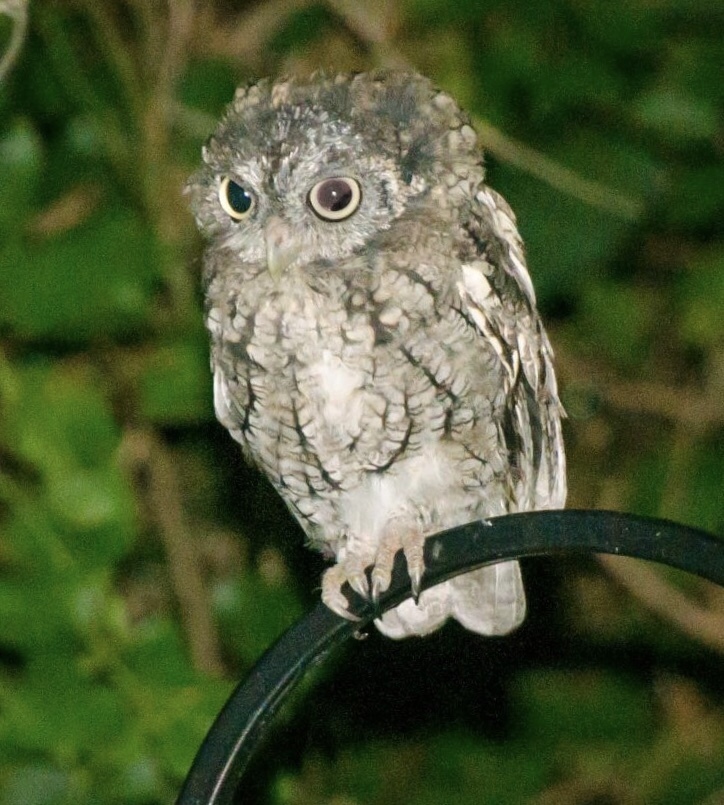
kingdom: Animalia
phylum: Chordata
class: Aves
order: Strigiformes
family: Strigidae
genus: Megascops
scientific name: Megascops asio
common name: Eastern screech-owl
